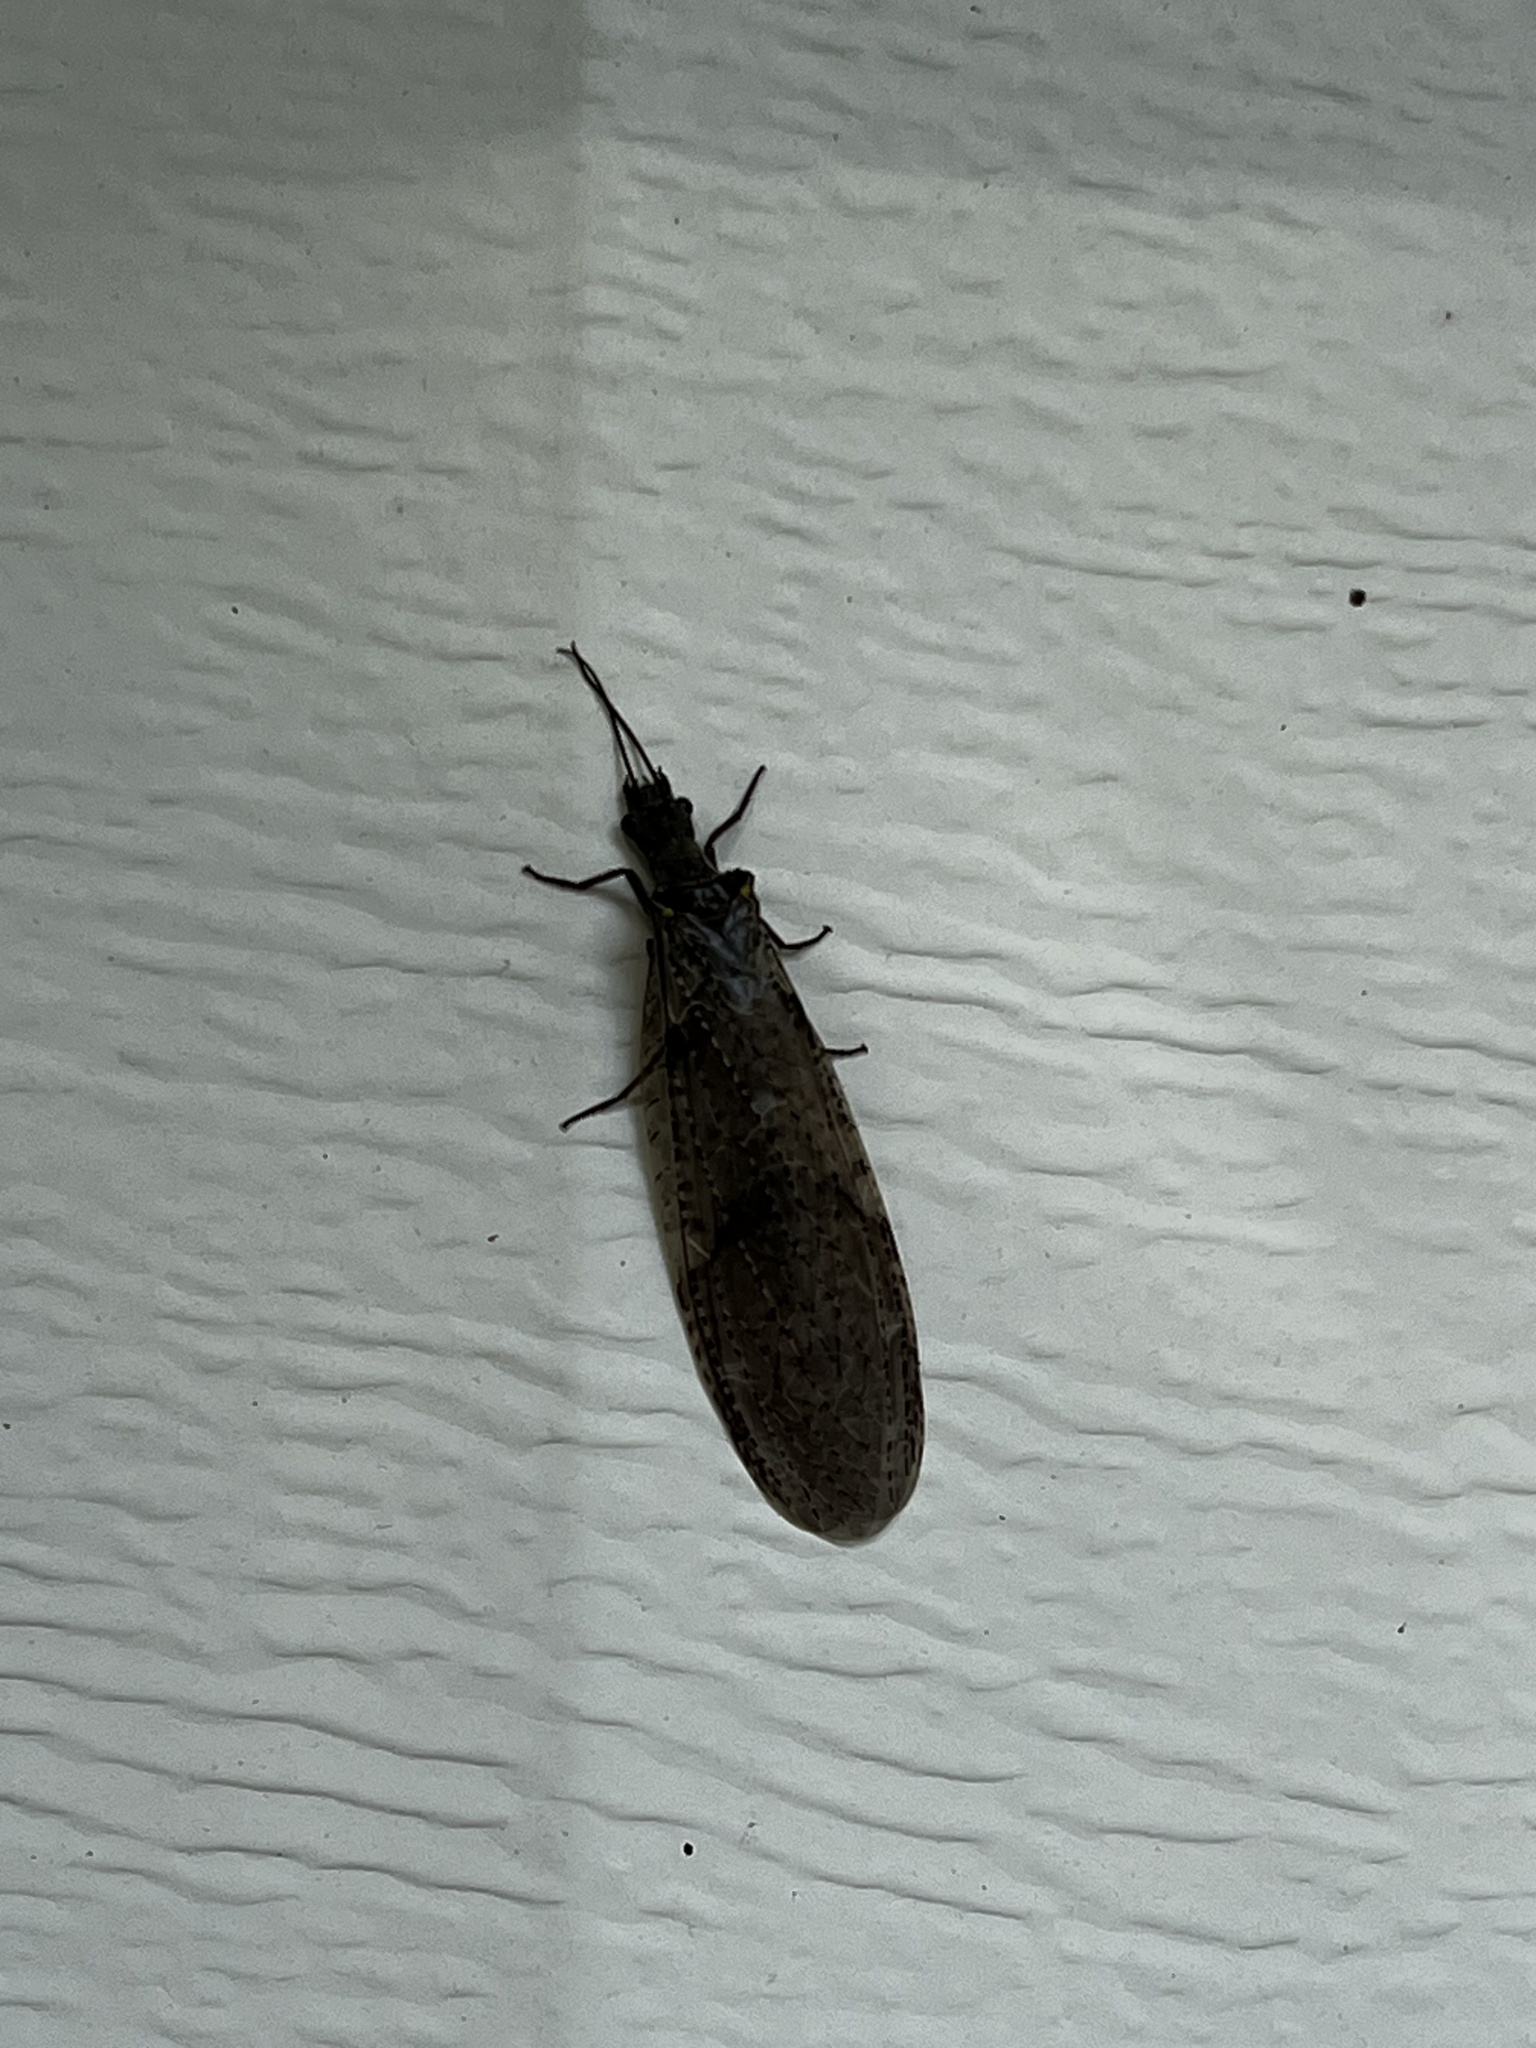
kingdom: Animalia
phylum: Arthropoda
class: Insecta
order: Megaloptera
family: Corydalidae
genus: Chauliodes
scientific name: Chauliodes rastricornis
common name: Spring fishfly
